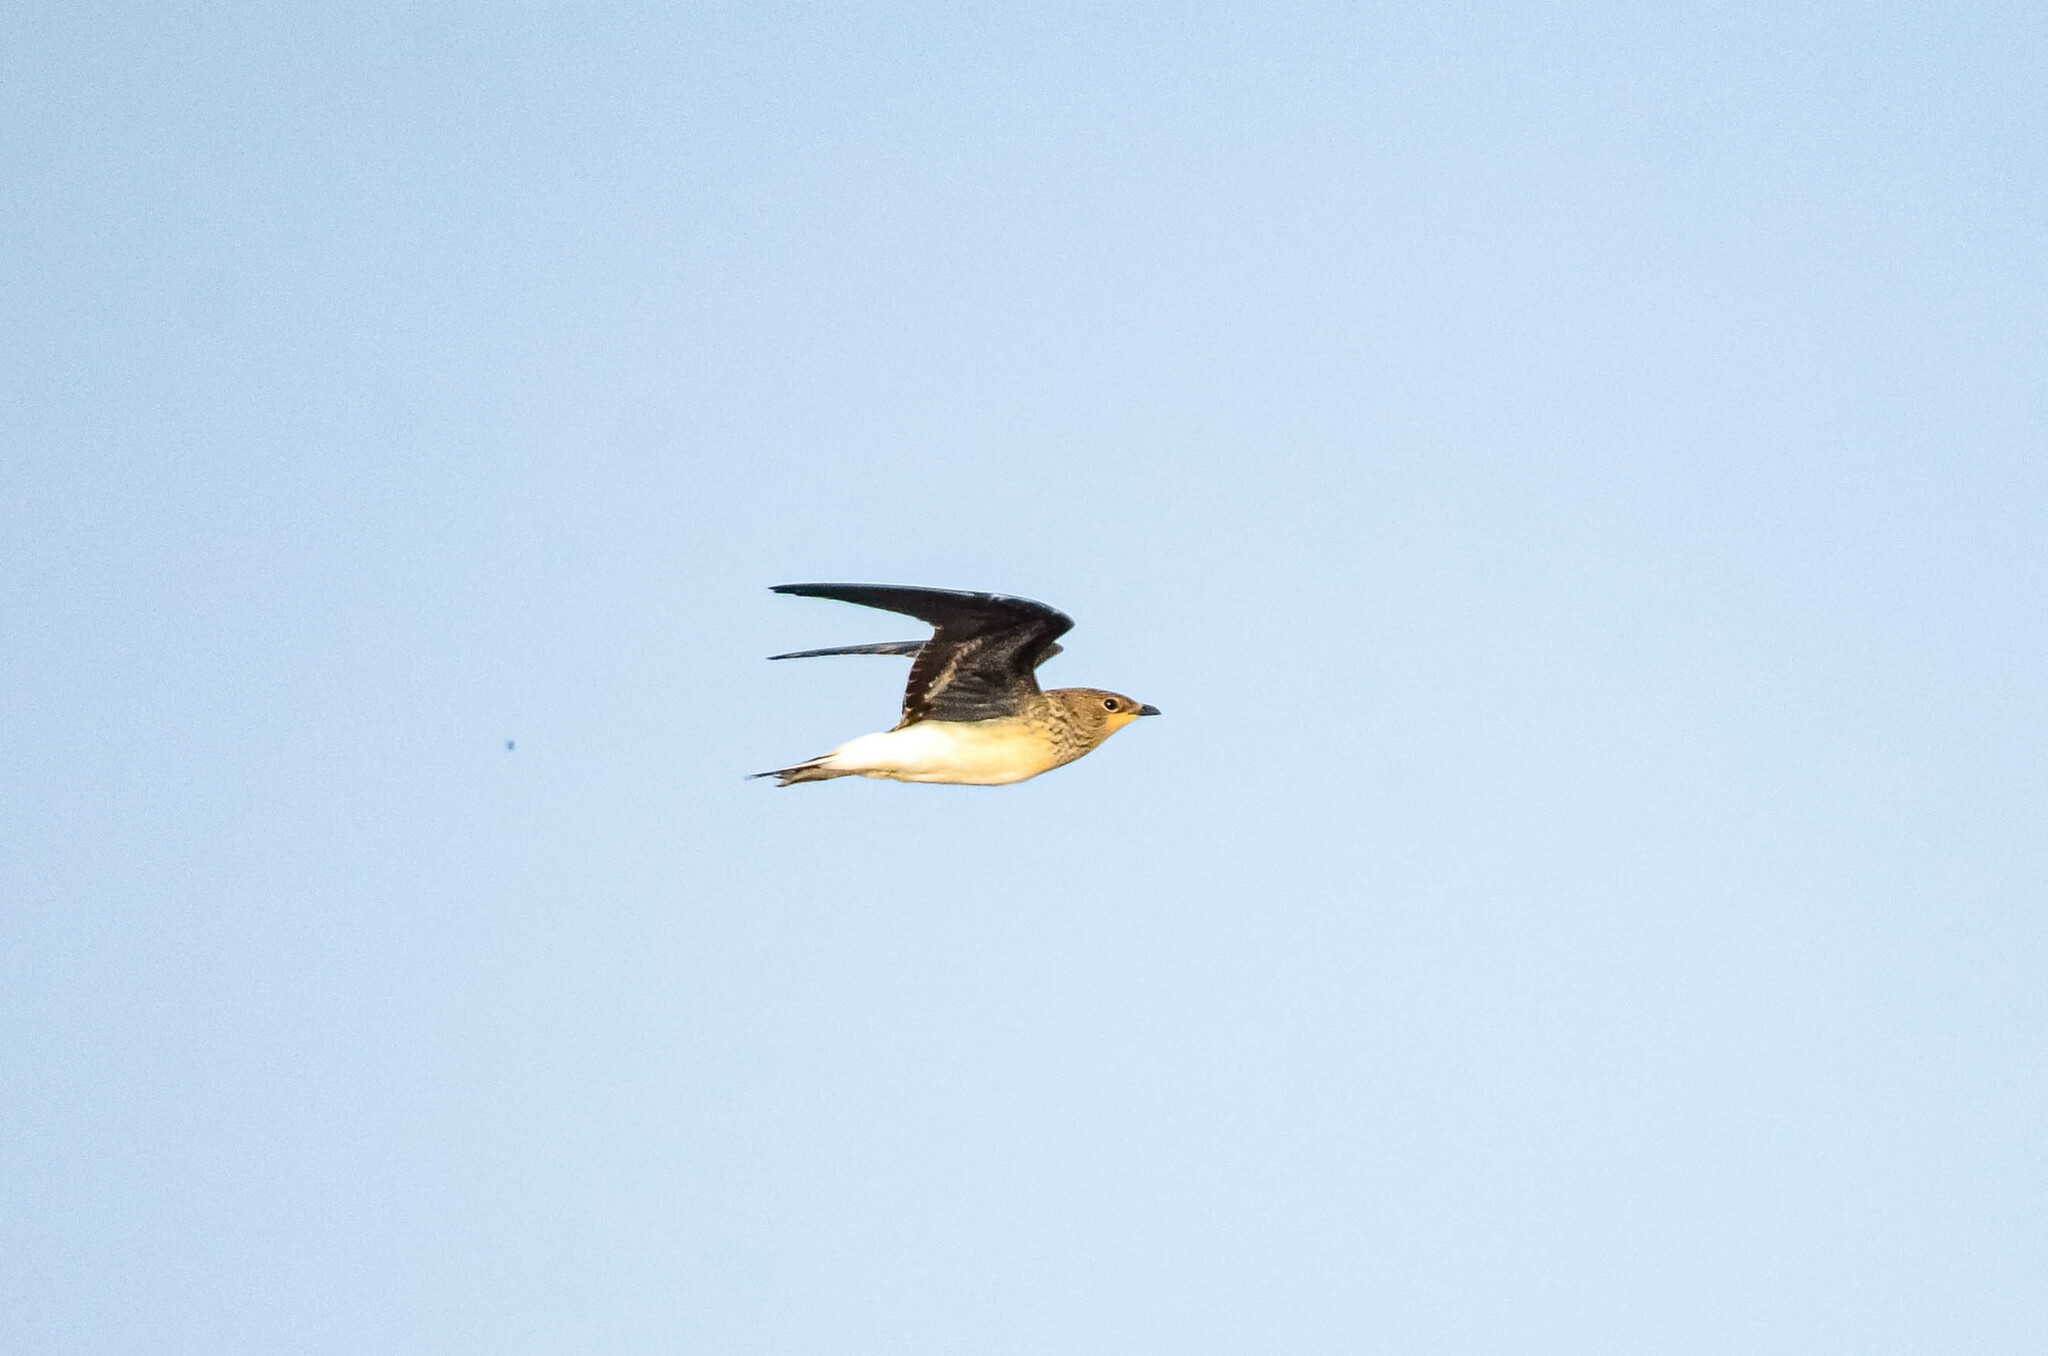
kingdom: Animalia
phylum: Chordata
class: Aves
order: Charadriiformes
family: Glareolidae
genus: Glareola
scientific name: Glareola nordmanni
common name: Black-winged pratincole
